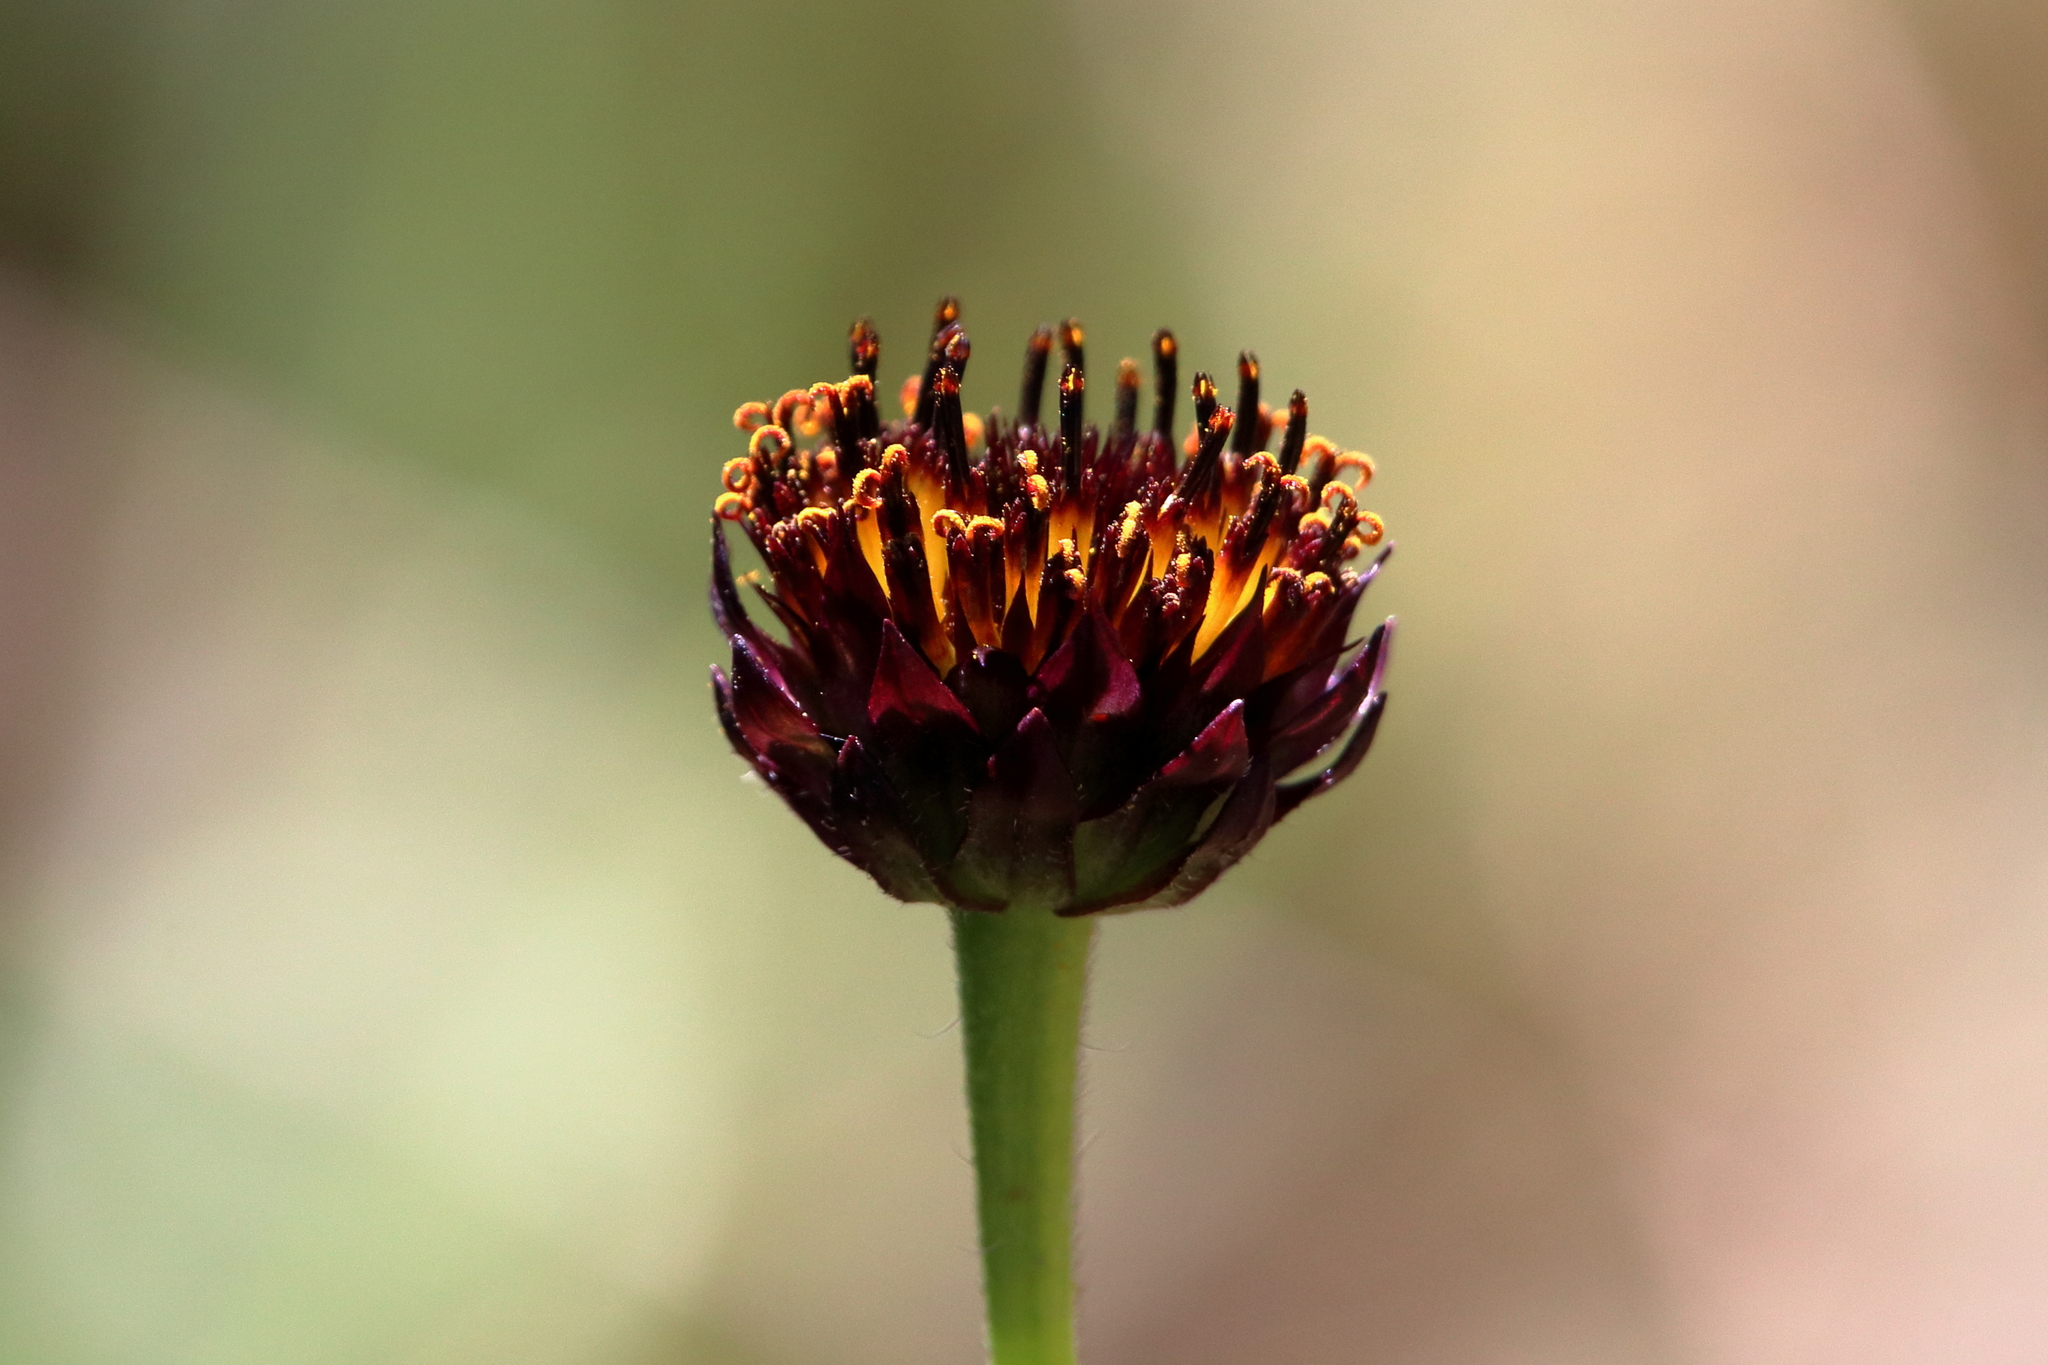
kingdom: Plantae
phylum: Tracheophyta
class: Magnoliopsida
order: Asterales
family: Asteraceae
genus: Helianthus
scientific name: Helianthus radula
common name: Pineland sunflower
